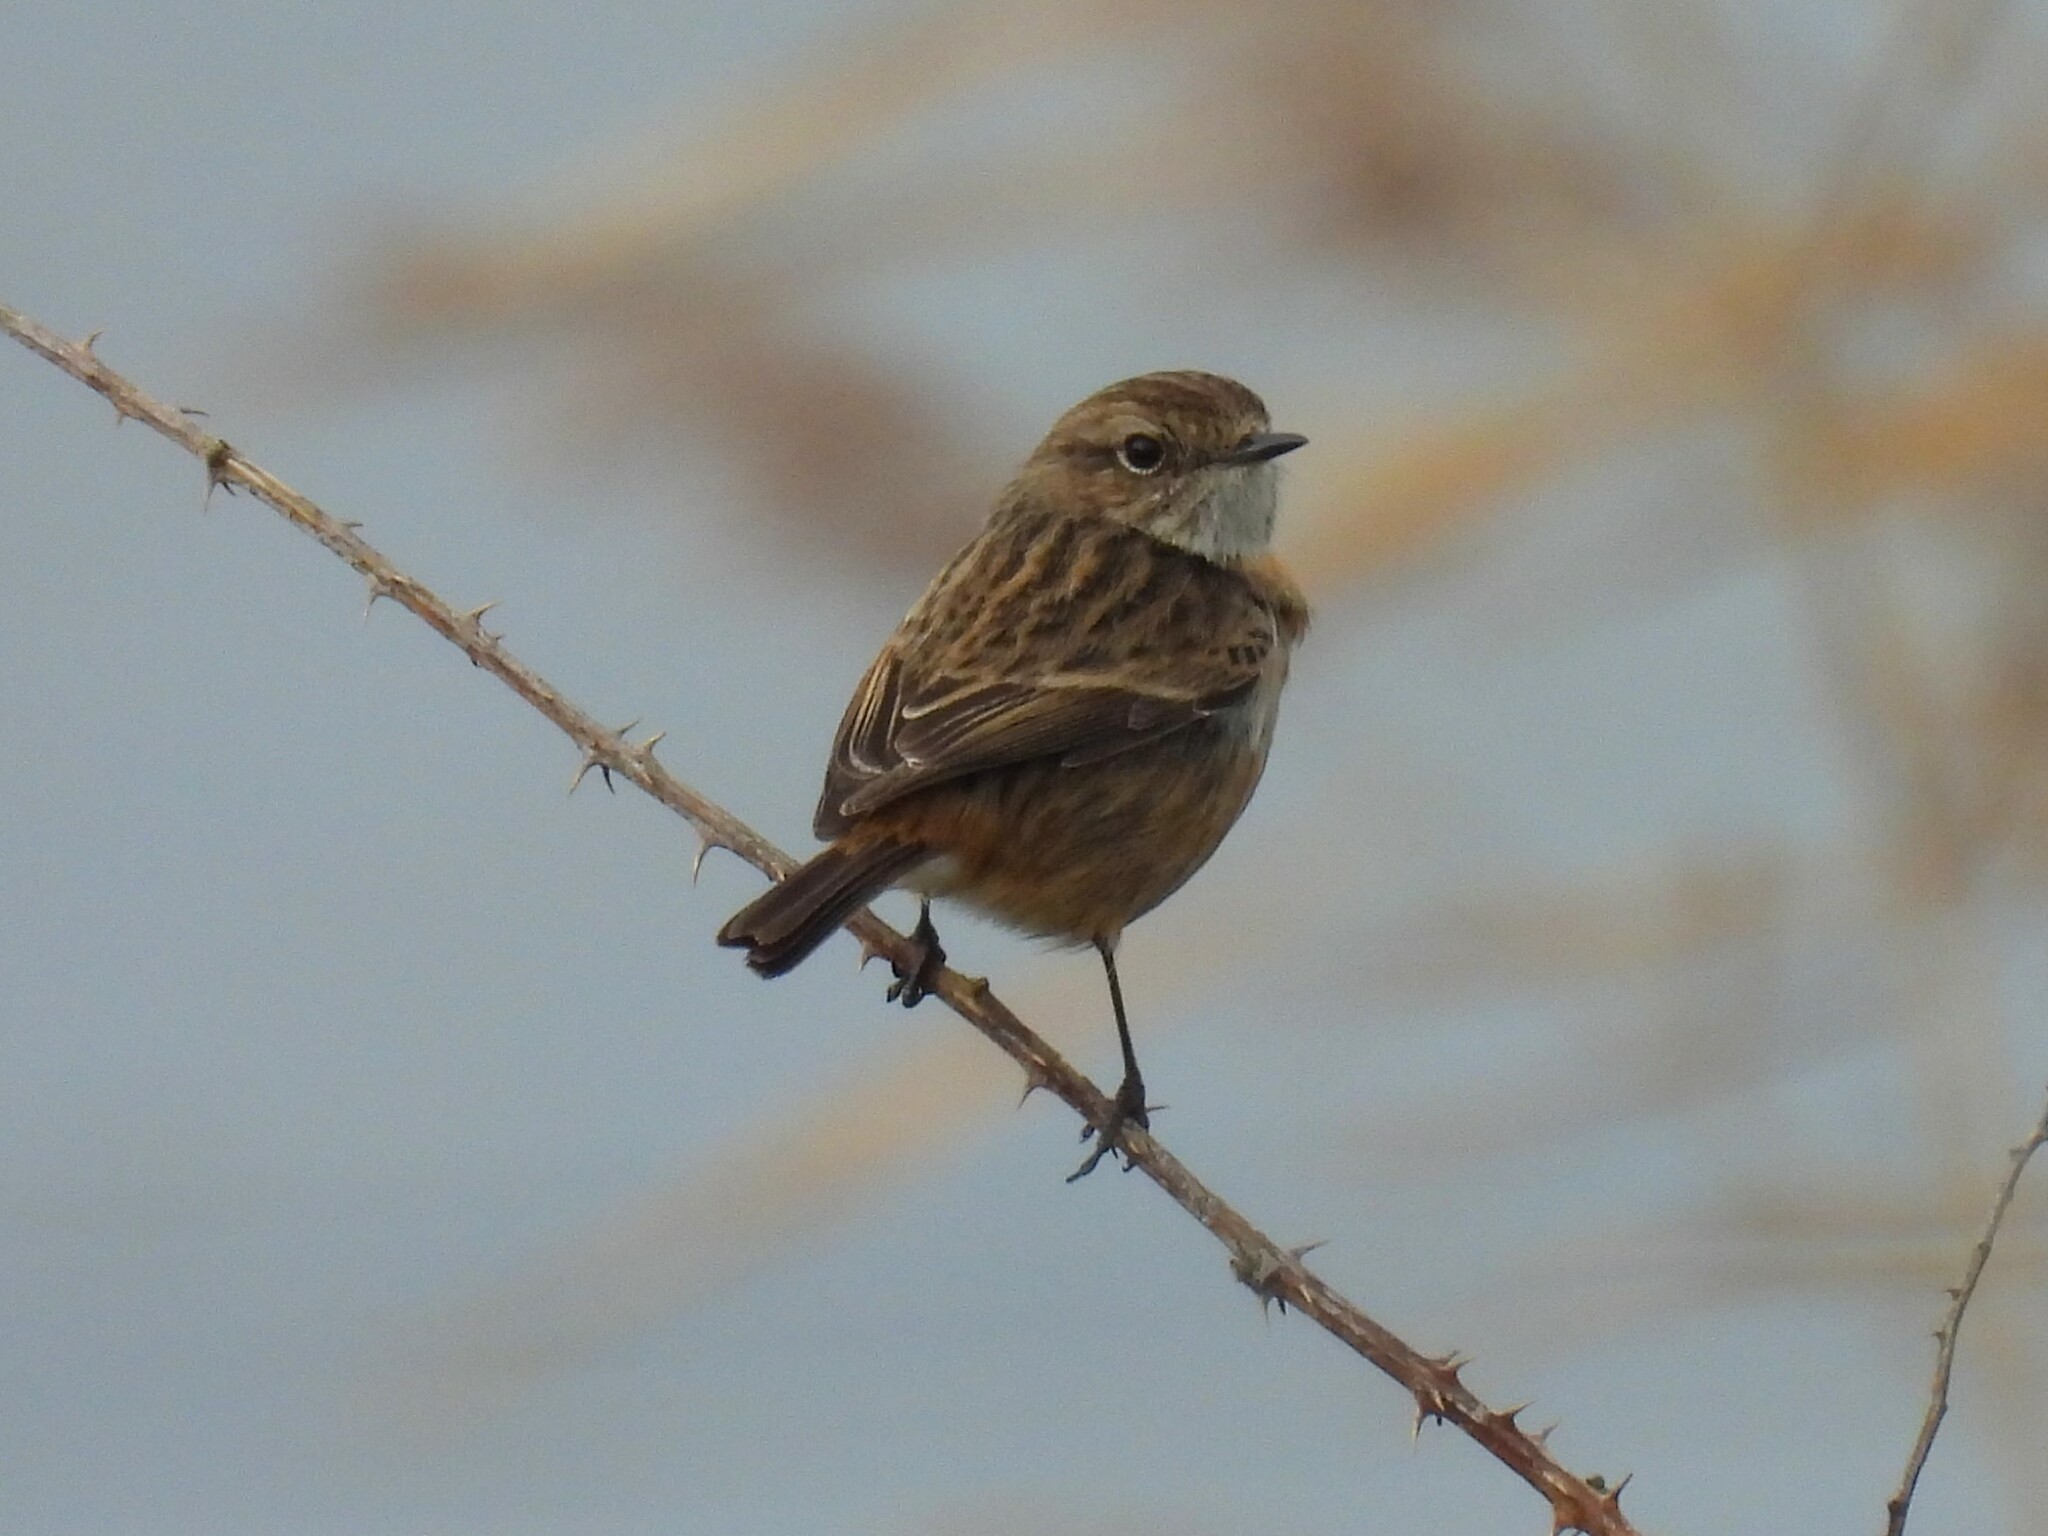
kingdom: Animalia
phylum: Chordata
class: Aves
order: Passeriformes
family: Muscicapidae
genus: Saxicola
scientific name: Saxicola rubicola
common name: European stonechat
